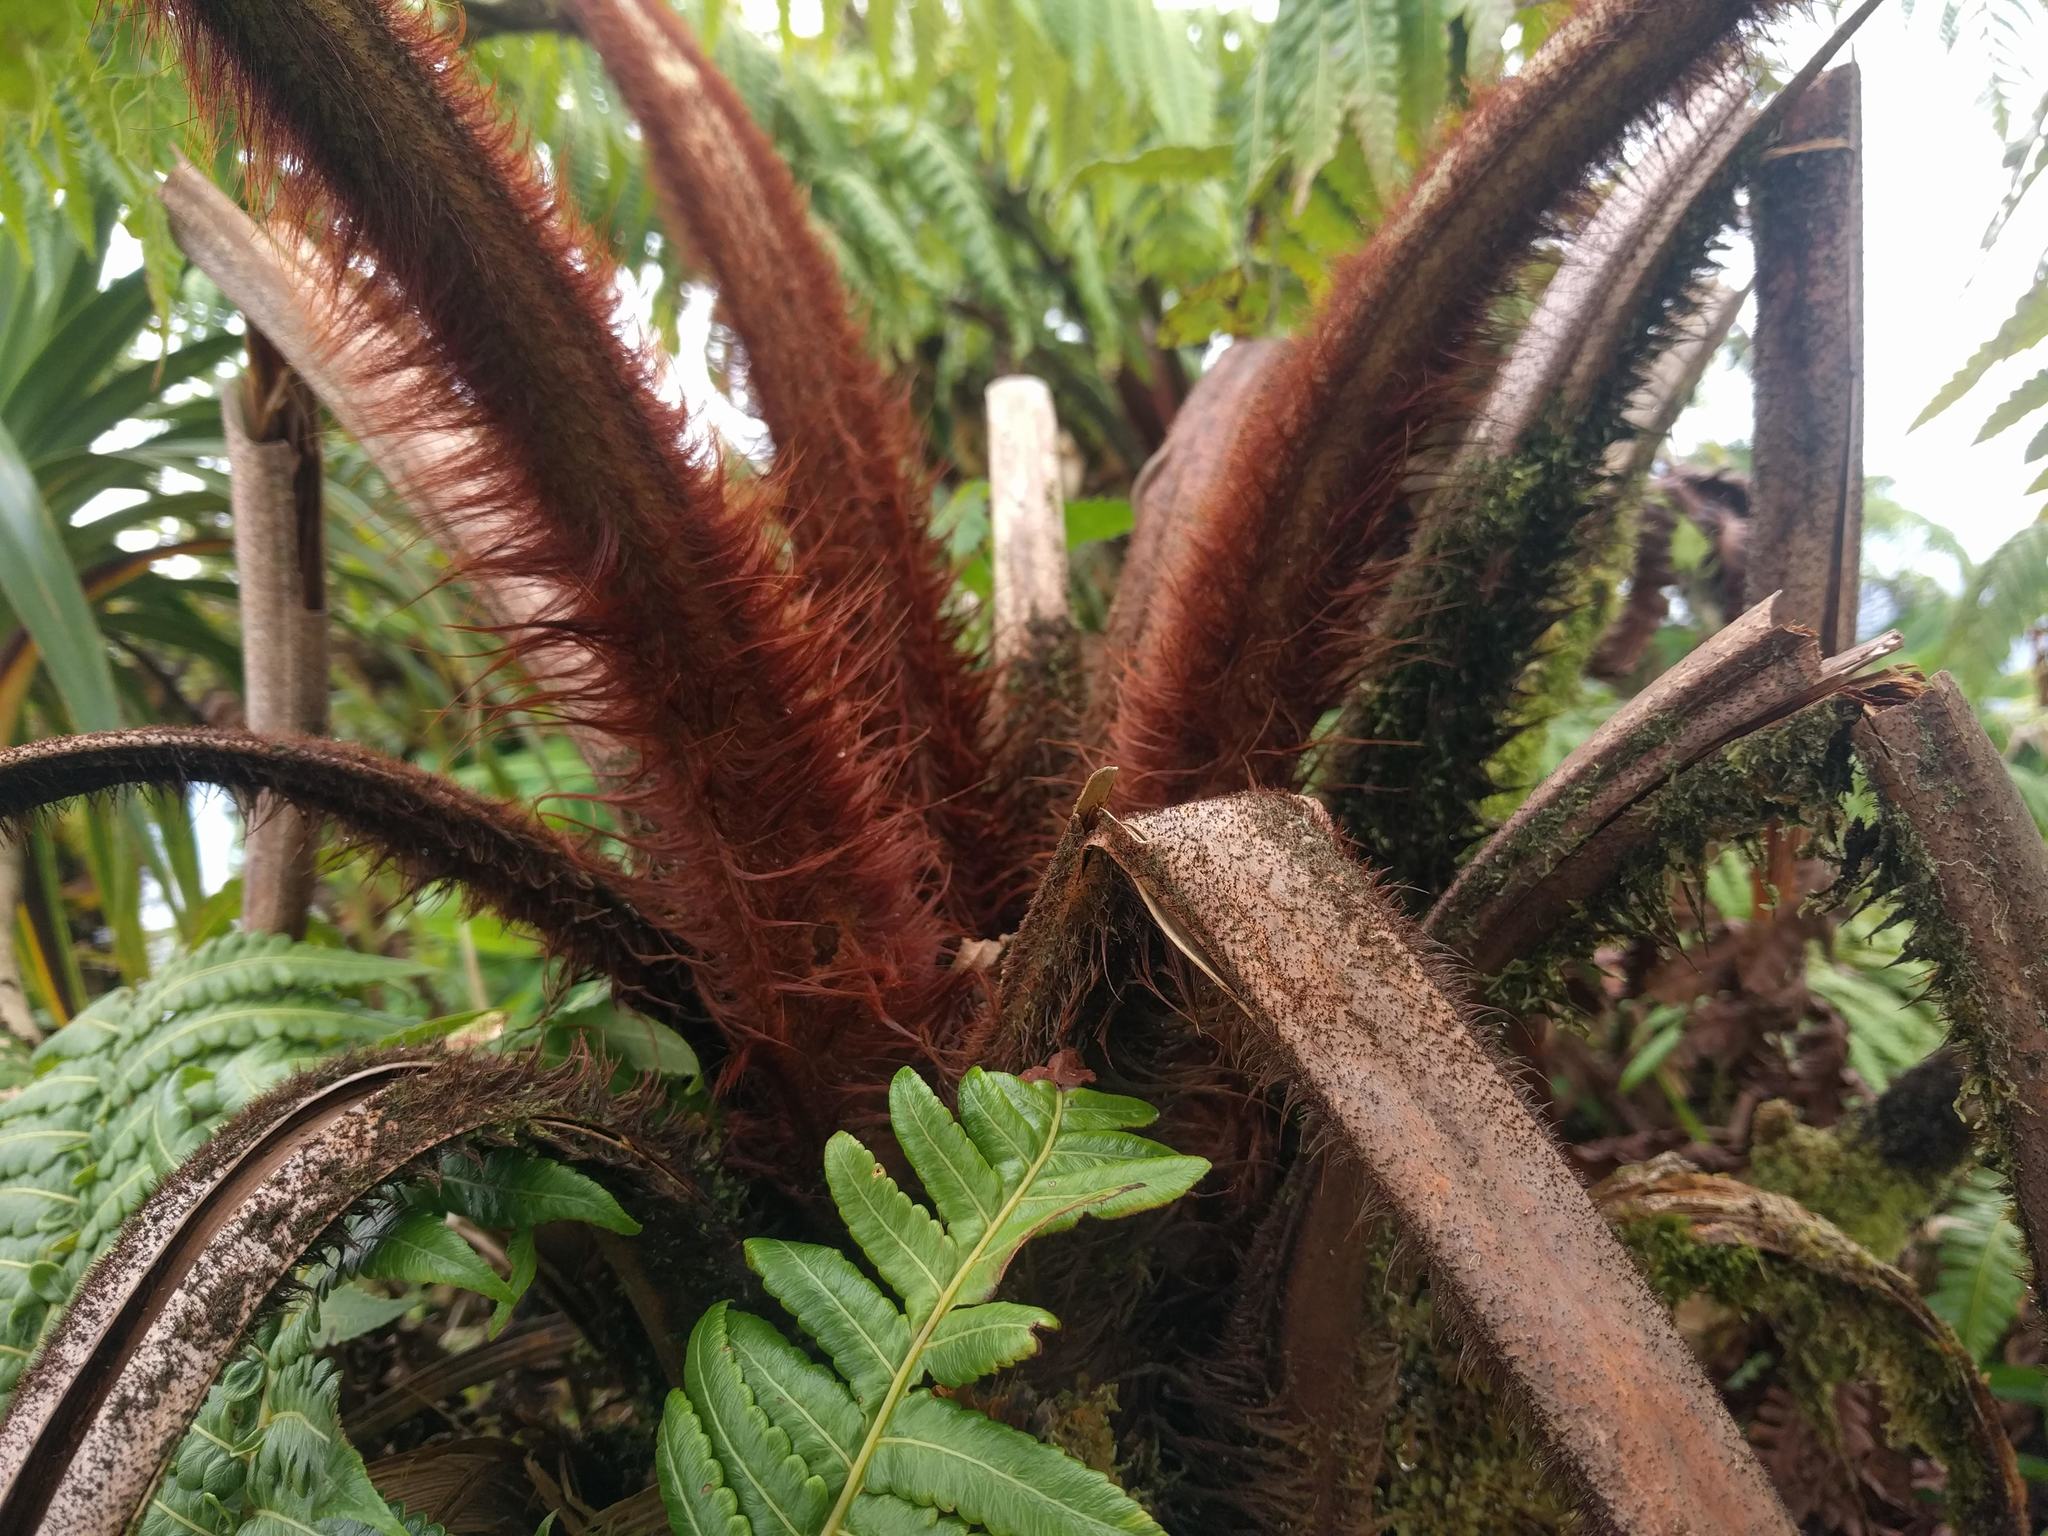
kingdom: Plantae
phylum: Tracheophyta
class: Polypodiopsida
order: Cyatheales
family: Cibotiaceae
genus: Cibotium
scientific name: Cibotium menziesii
